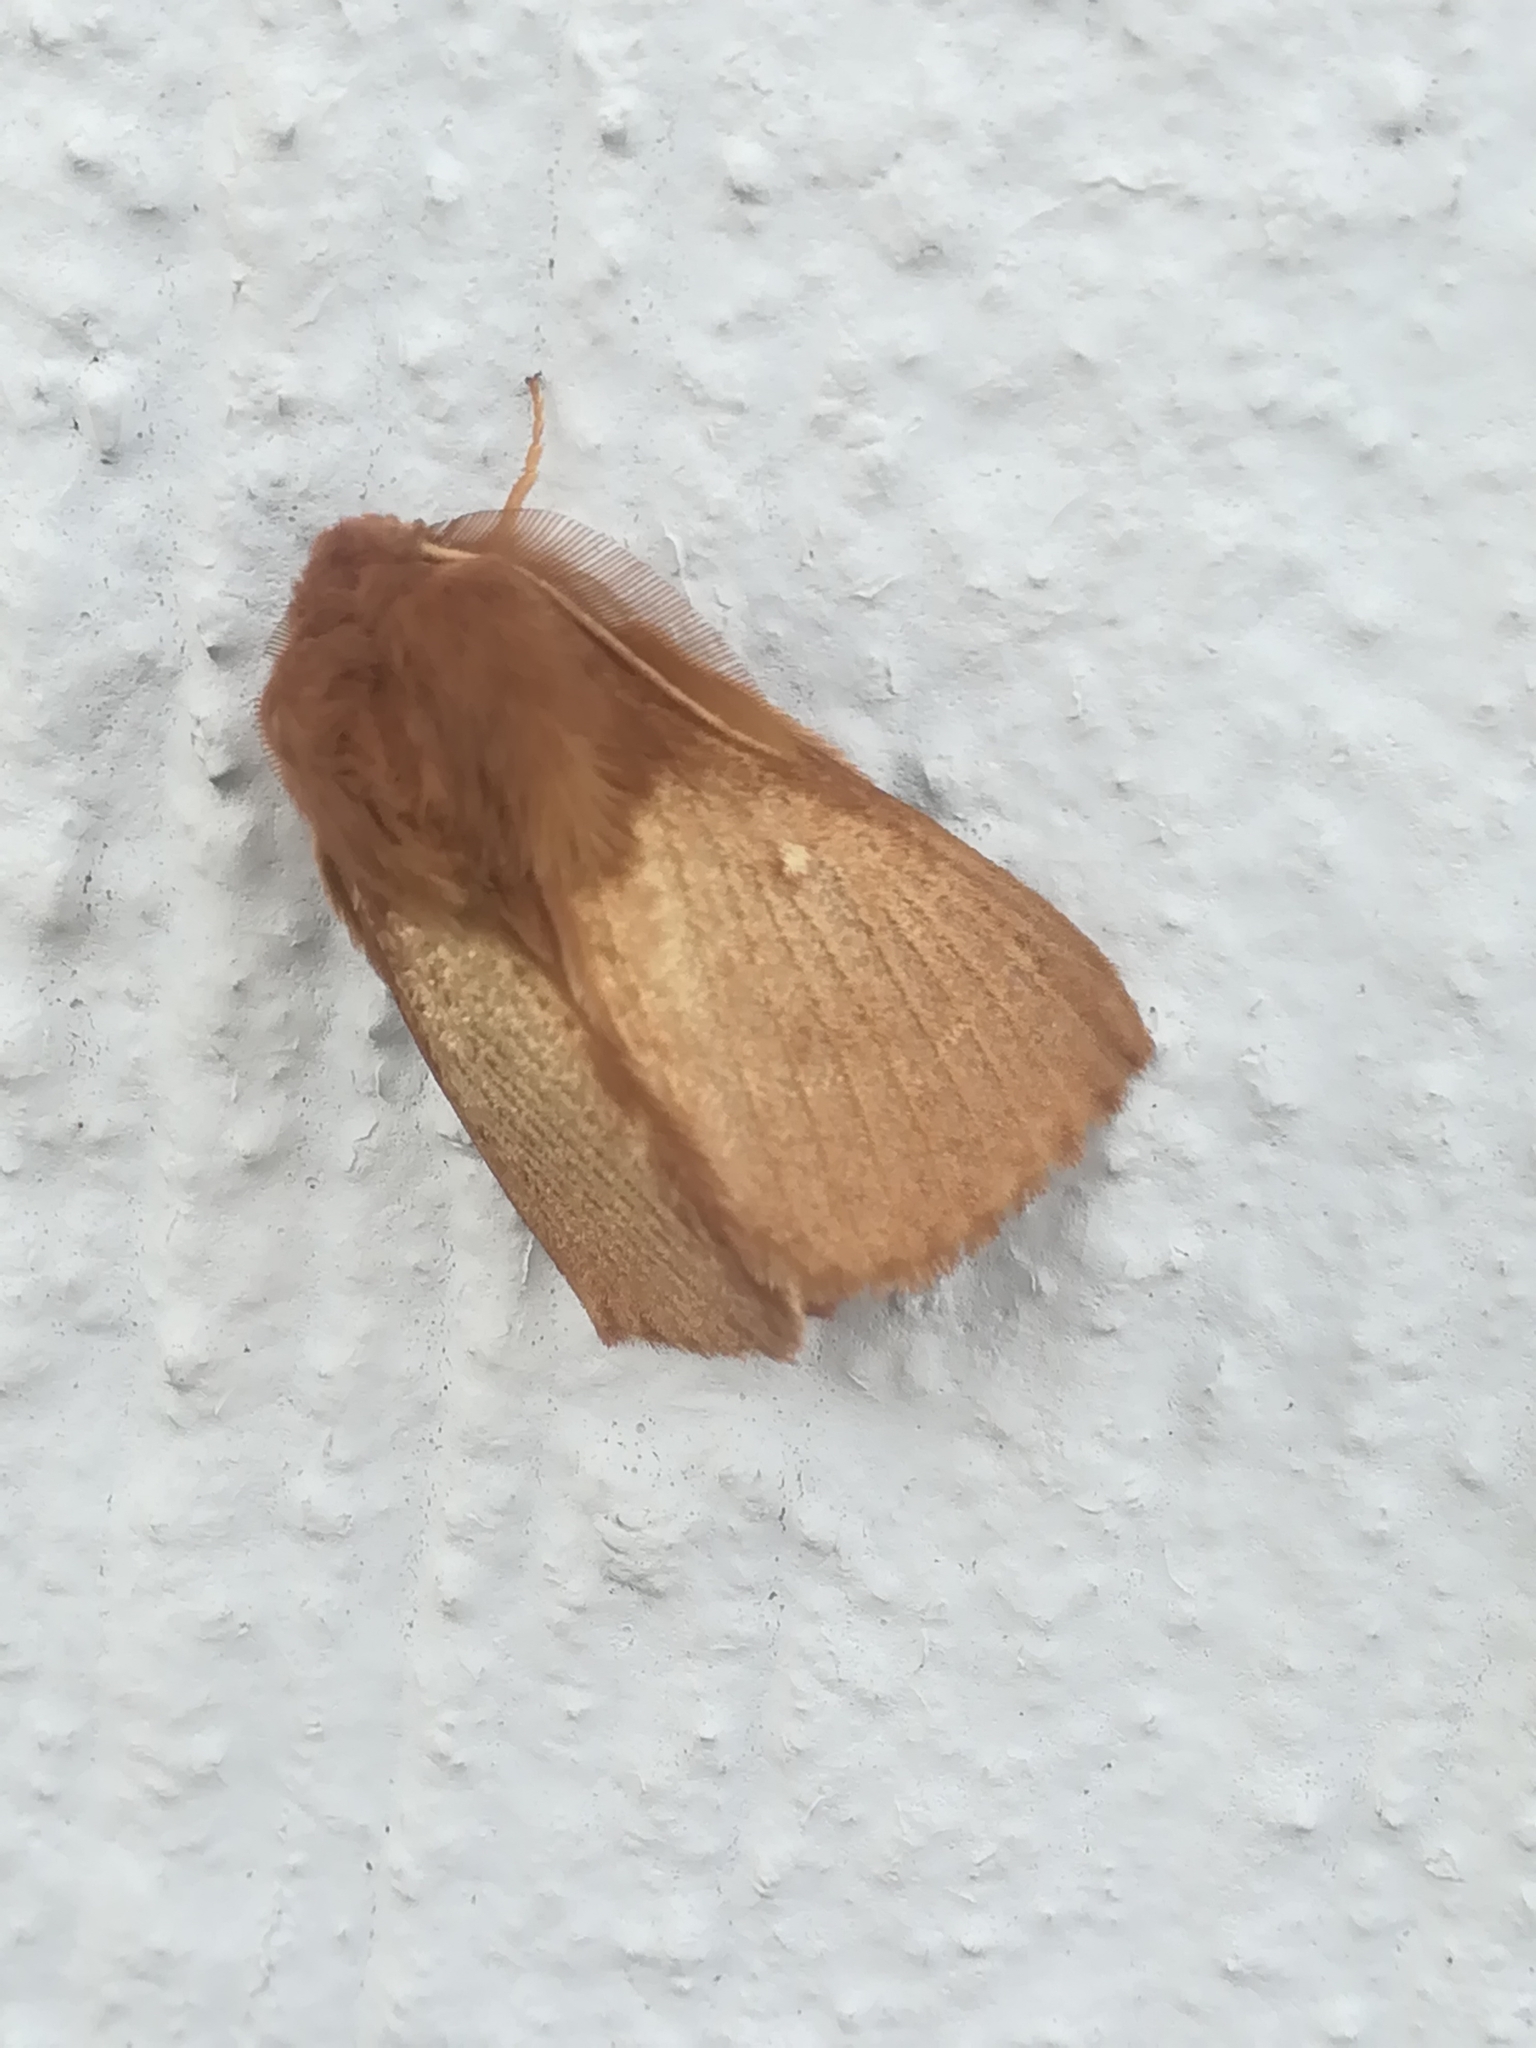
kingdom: Animalia
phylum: Arthropoda
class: Insecta
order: Lepidoptera
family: Lasiocampidae
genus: Lasiocampa
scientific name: Lasiocampa trifolii
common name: Grass eggar
